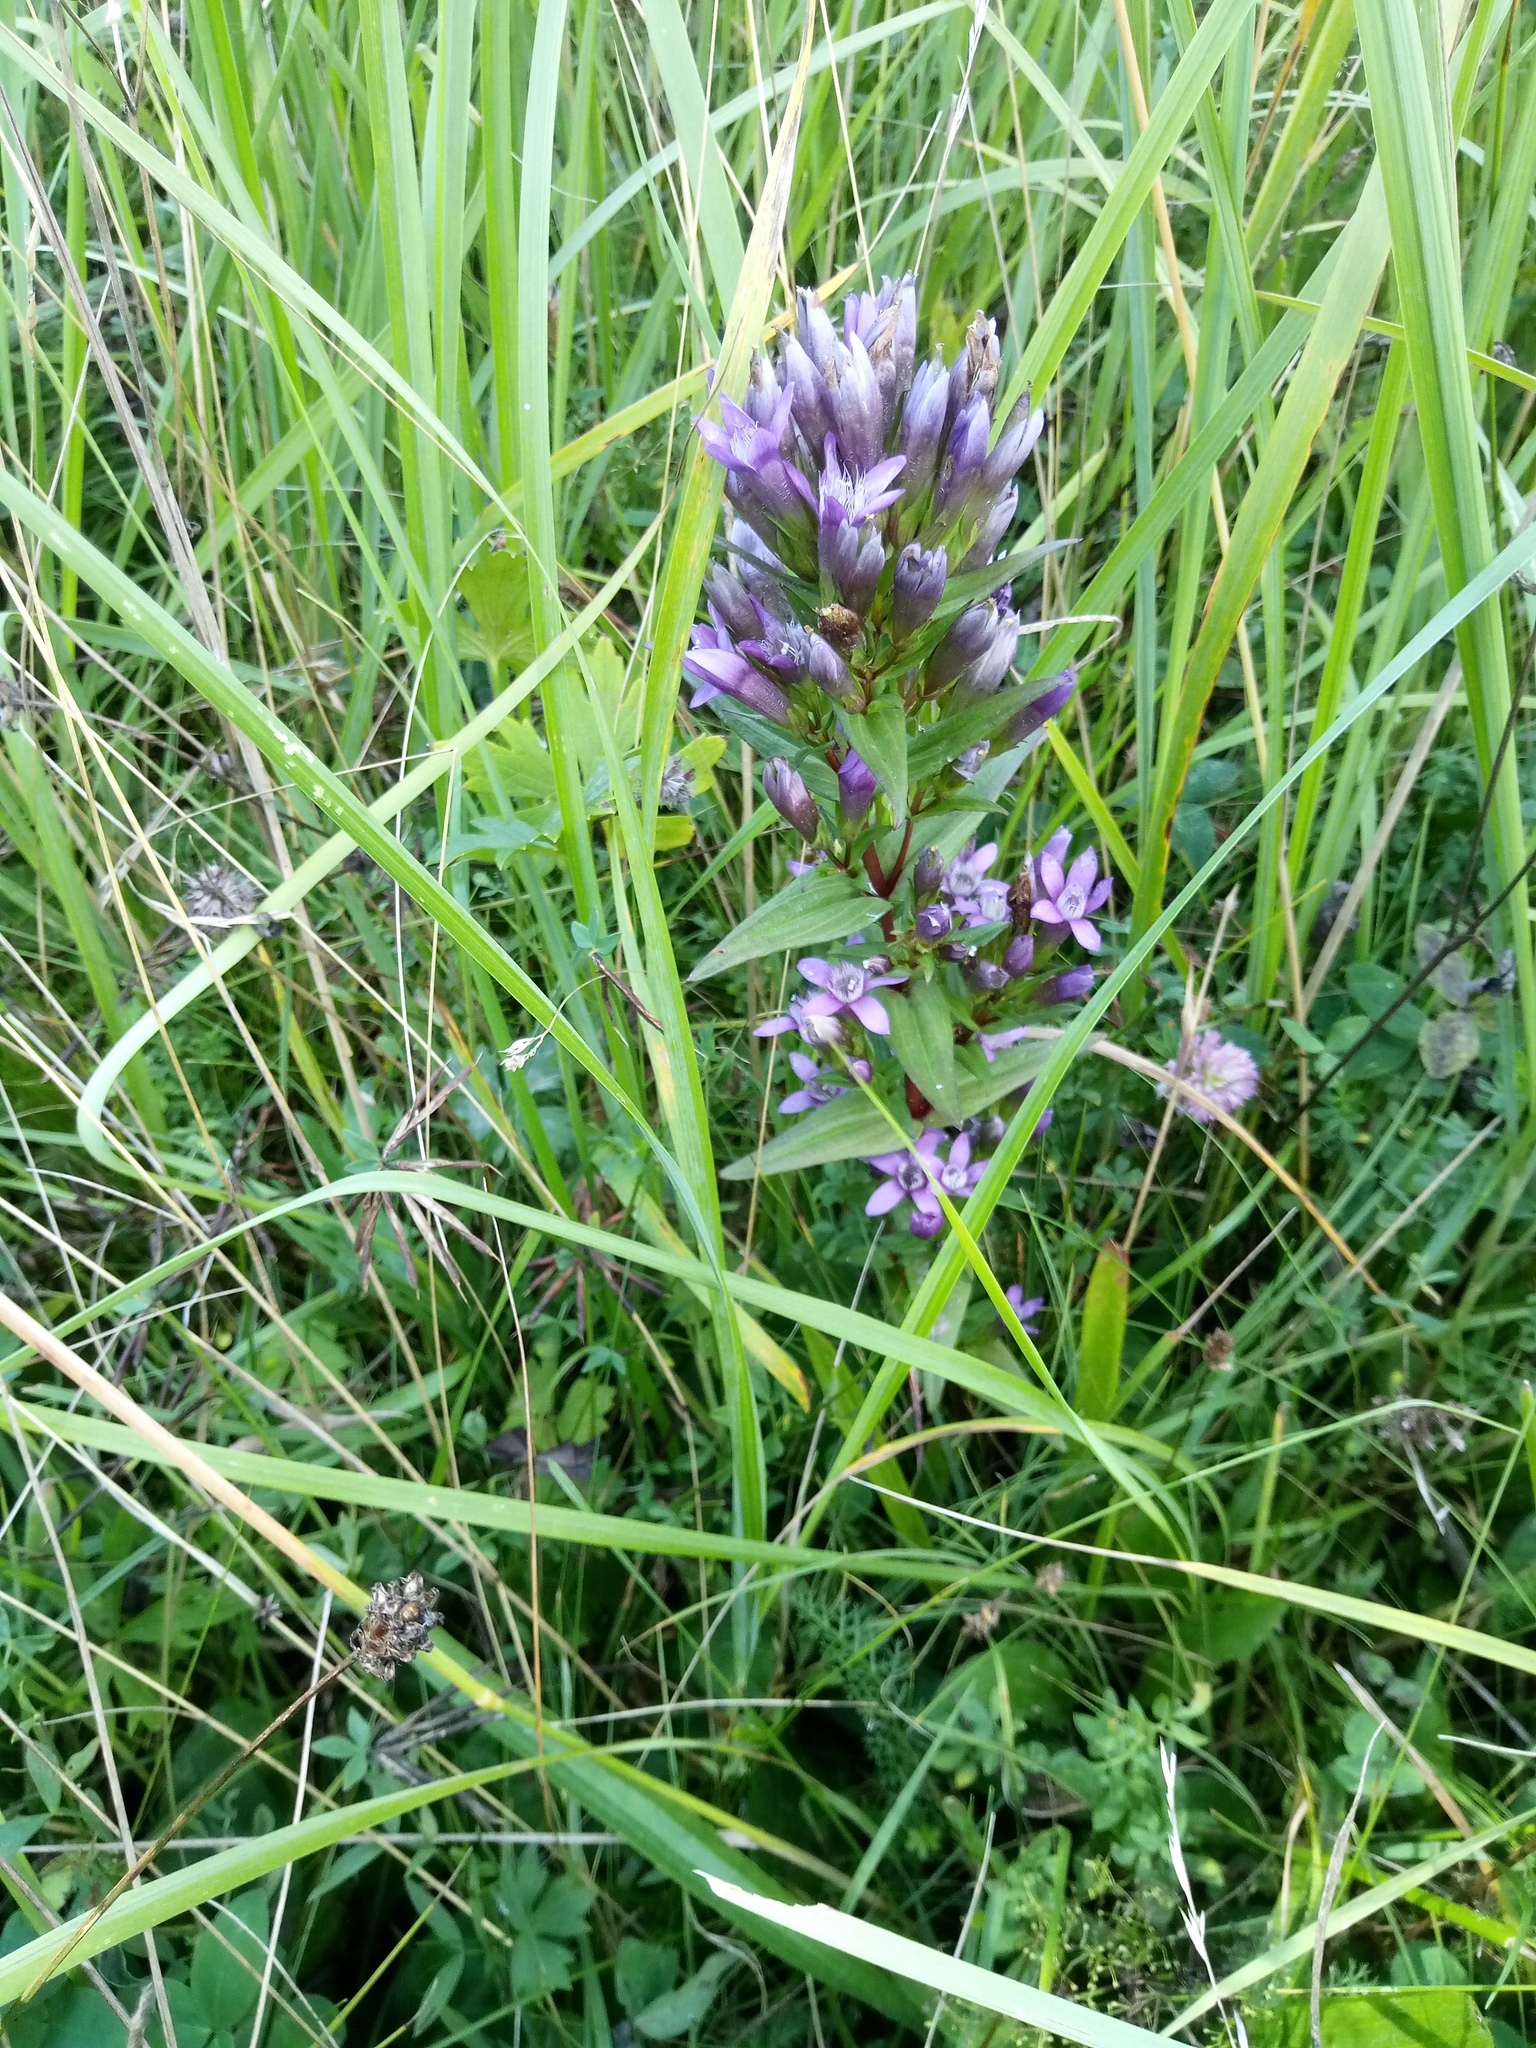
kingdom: Plantae
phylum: Tracheophyta
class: Magnoliopsida
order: Gentianales
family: Gentianaceae
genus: Gentianella
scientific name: Gentianella obtusifolia
